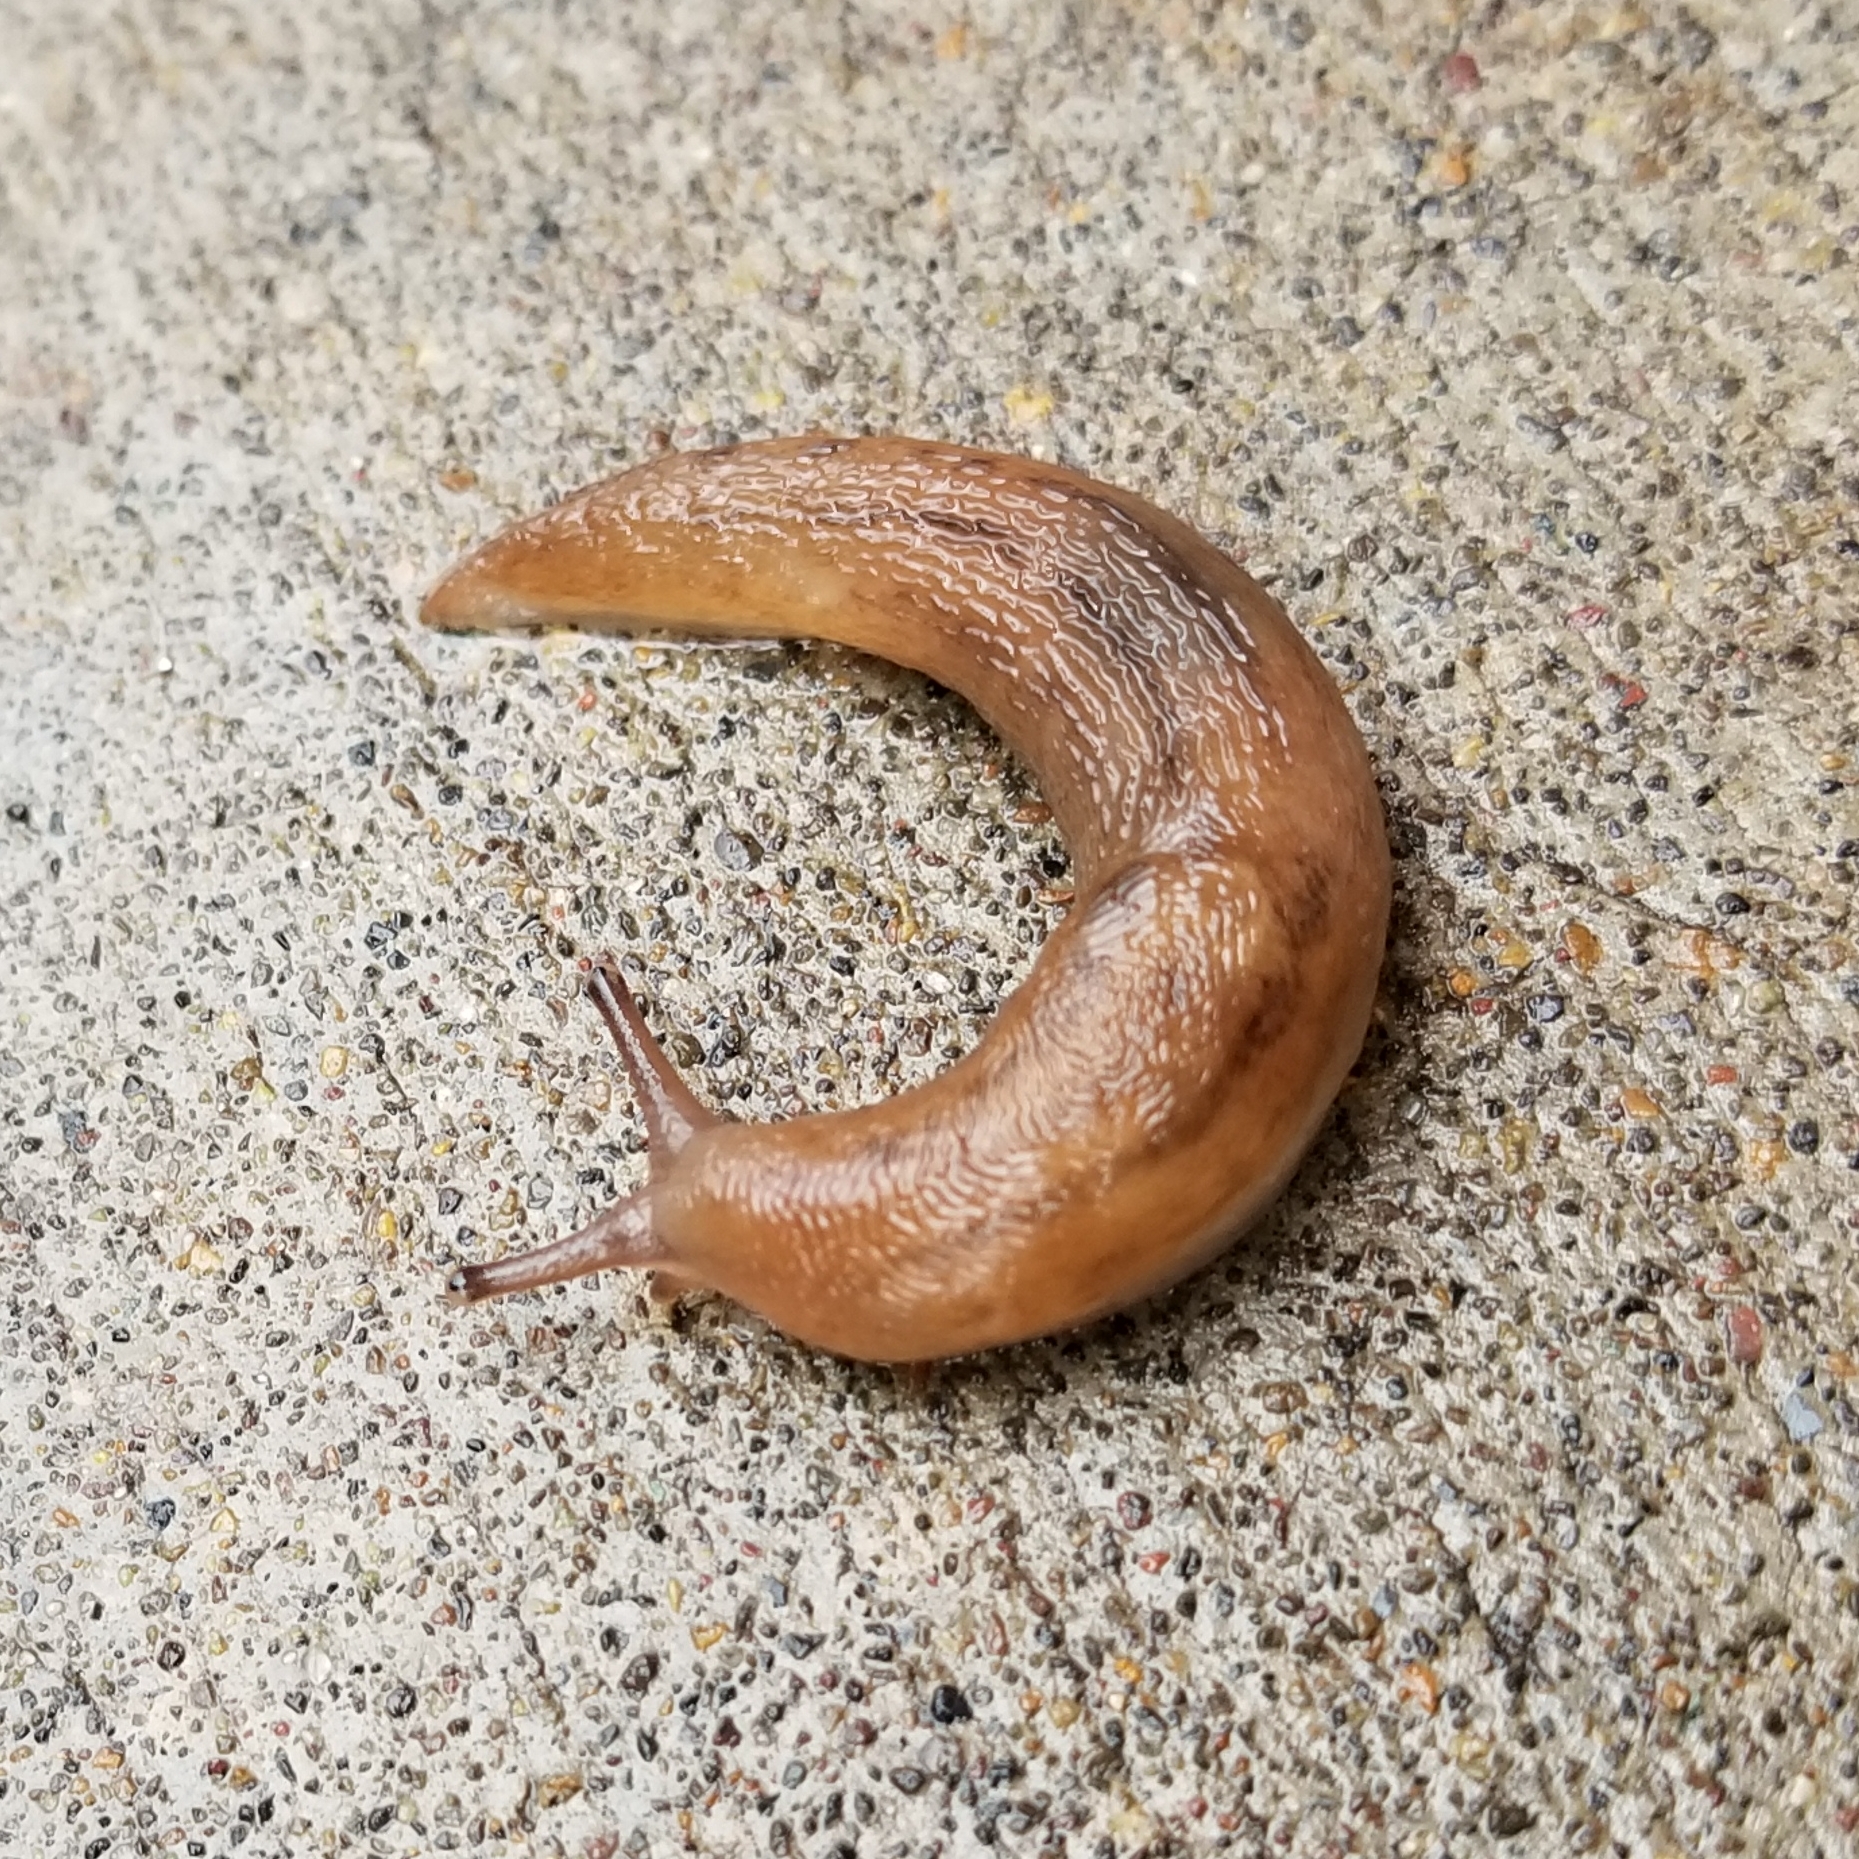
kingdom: Animalia
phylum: Mollusca
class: Gastropoda
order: Stylommatophora
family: Limacidae
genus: Ambigolimax
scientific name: Ambigolimax
